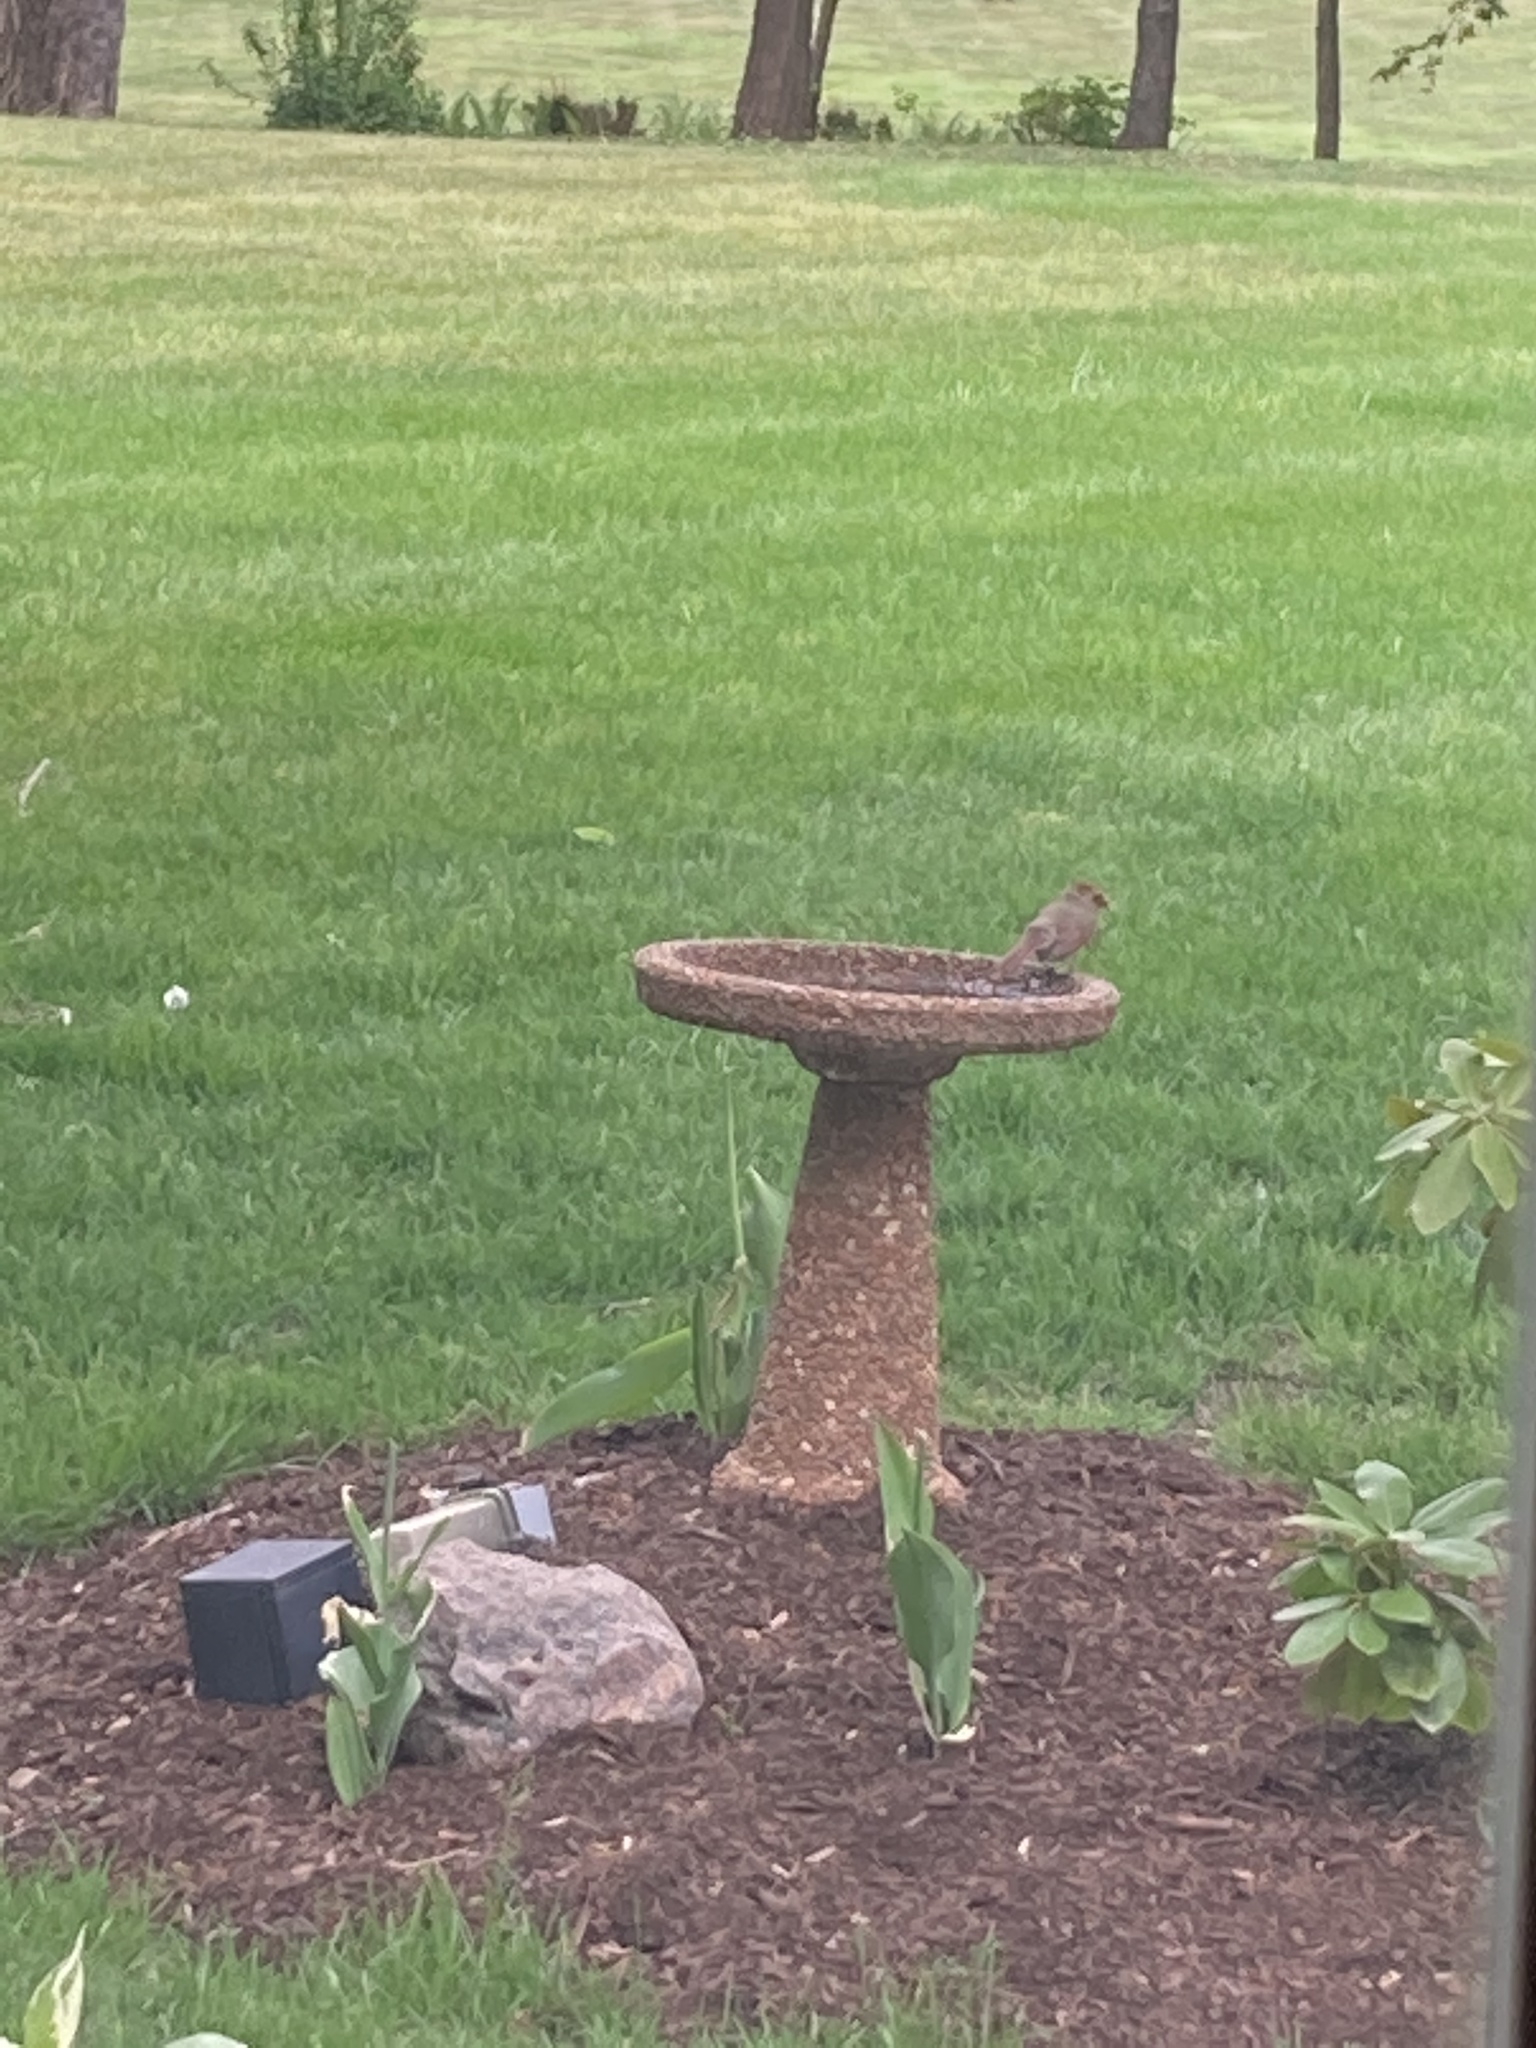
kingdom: Animalia
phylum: Chordata
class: Aves
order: Passeriformes
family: Cardinalidae
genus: Cardinalis
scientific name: Cardinalis cardinalis
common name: Northern cardinal
